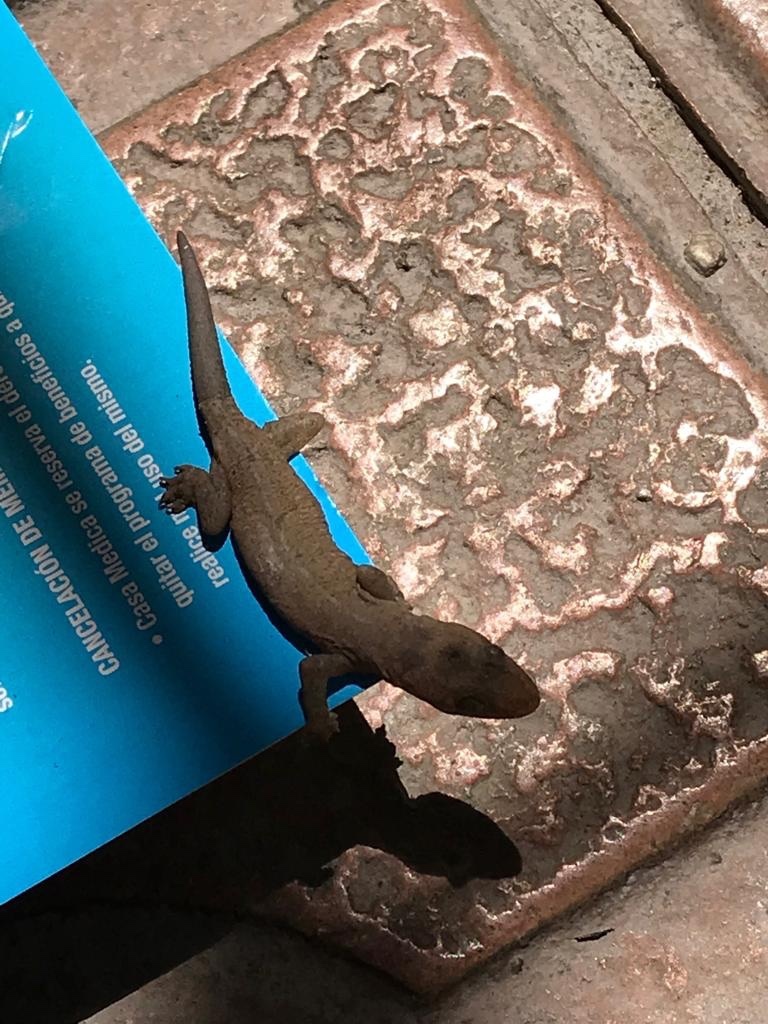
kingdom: Animalia
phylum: Chordata
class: Squamata
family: Gekkonidae
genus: Hemidactylus
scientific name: Hemidactylus frenatus
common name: Common house gecko
